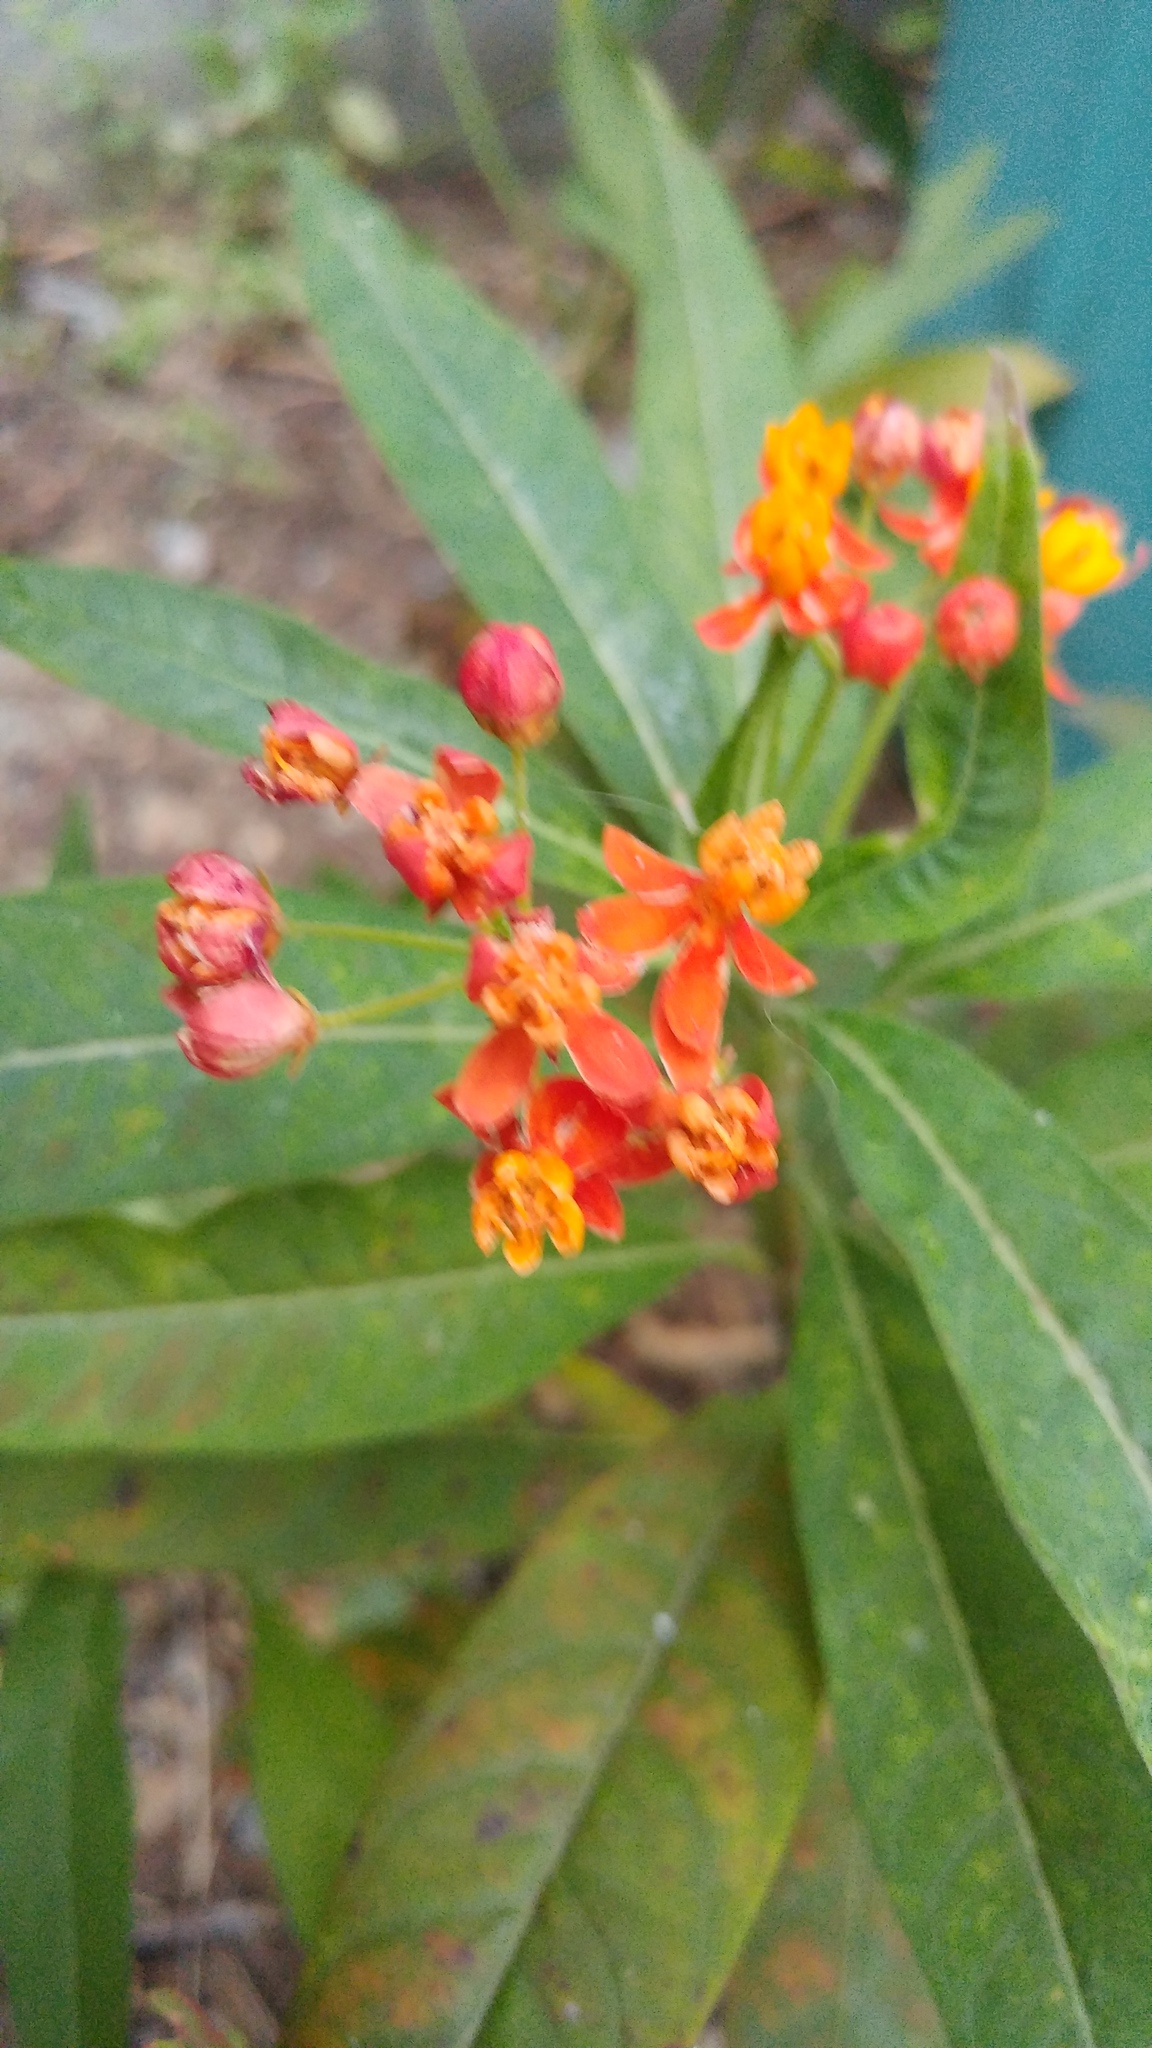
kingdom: Plantae
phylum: Tracheophyta
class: Magnoliopsida
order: Gentianales
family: Apocynaceae
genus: Asclepias
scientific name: Asclepias curassavica
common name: Bloodflower
